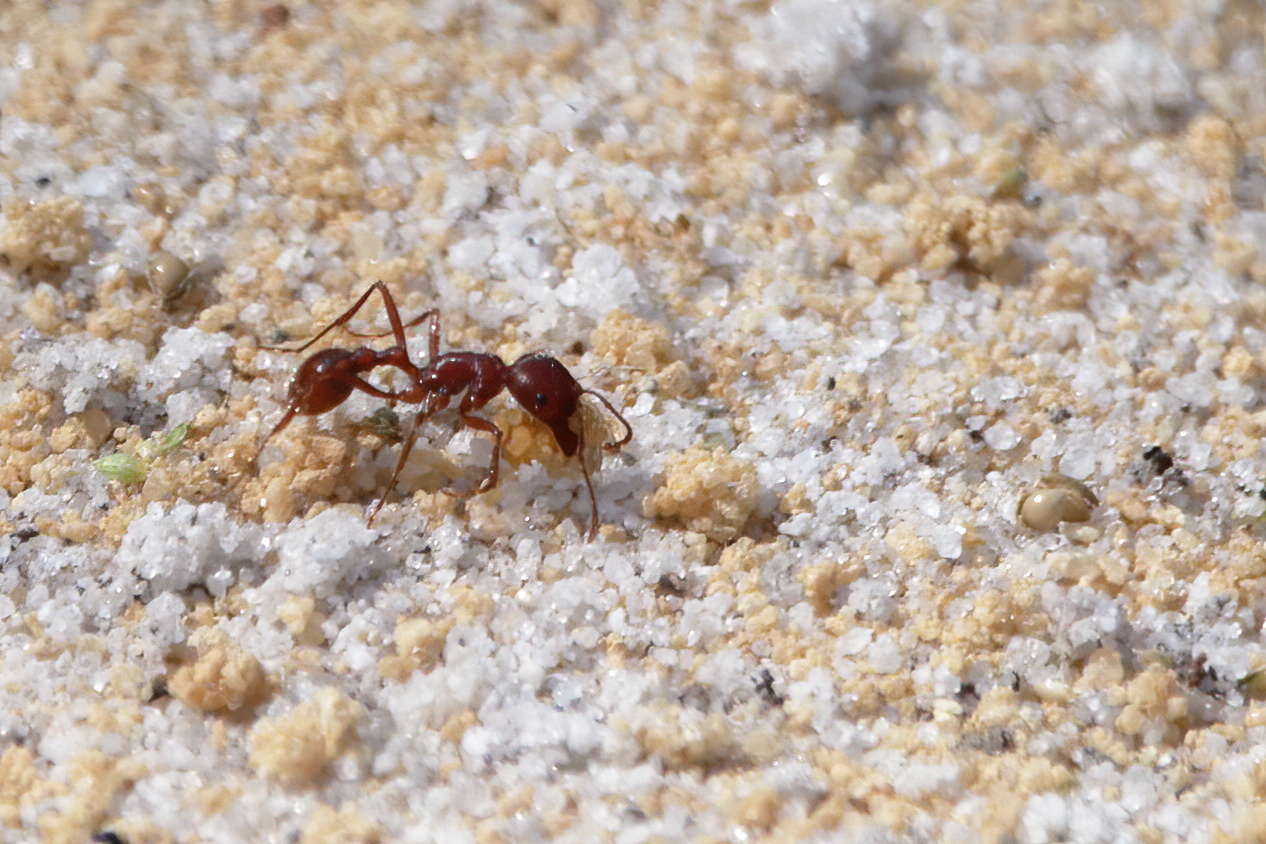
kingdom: Animalia
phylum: Arthropoda
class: Insecta
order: Hymenoptera
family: Formicidae
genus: Pogonomyrmex
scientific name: Pogonomyrmex badius
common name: Florida harvester ant
